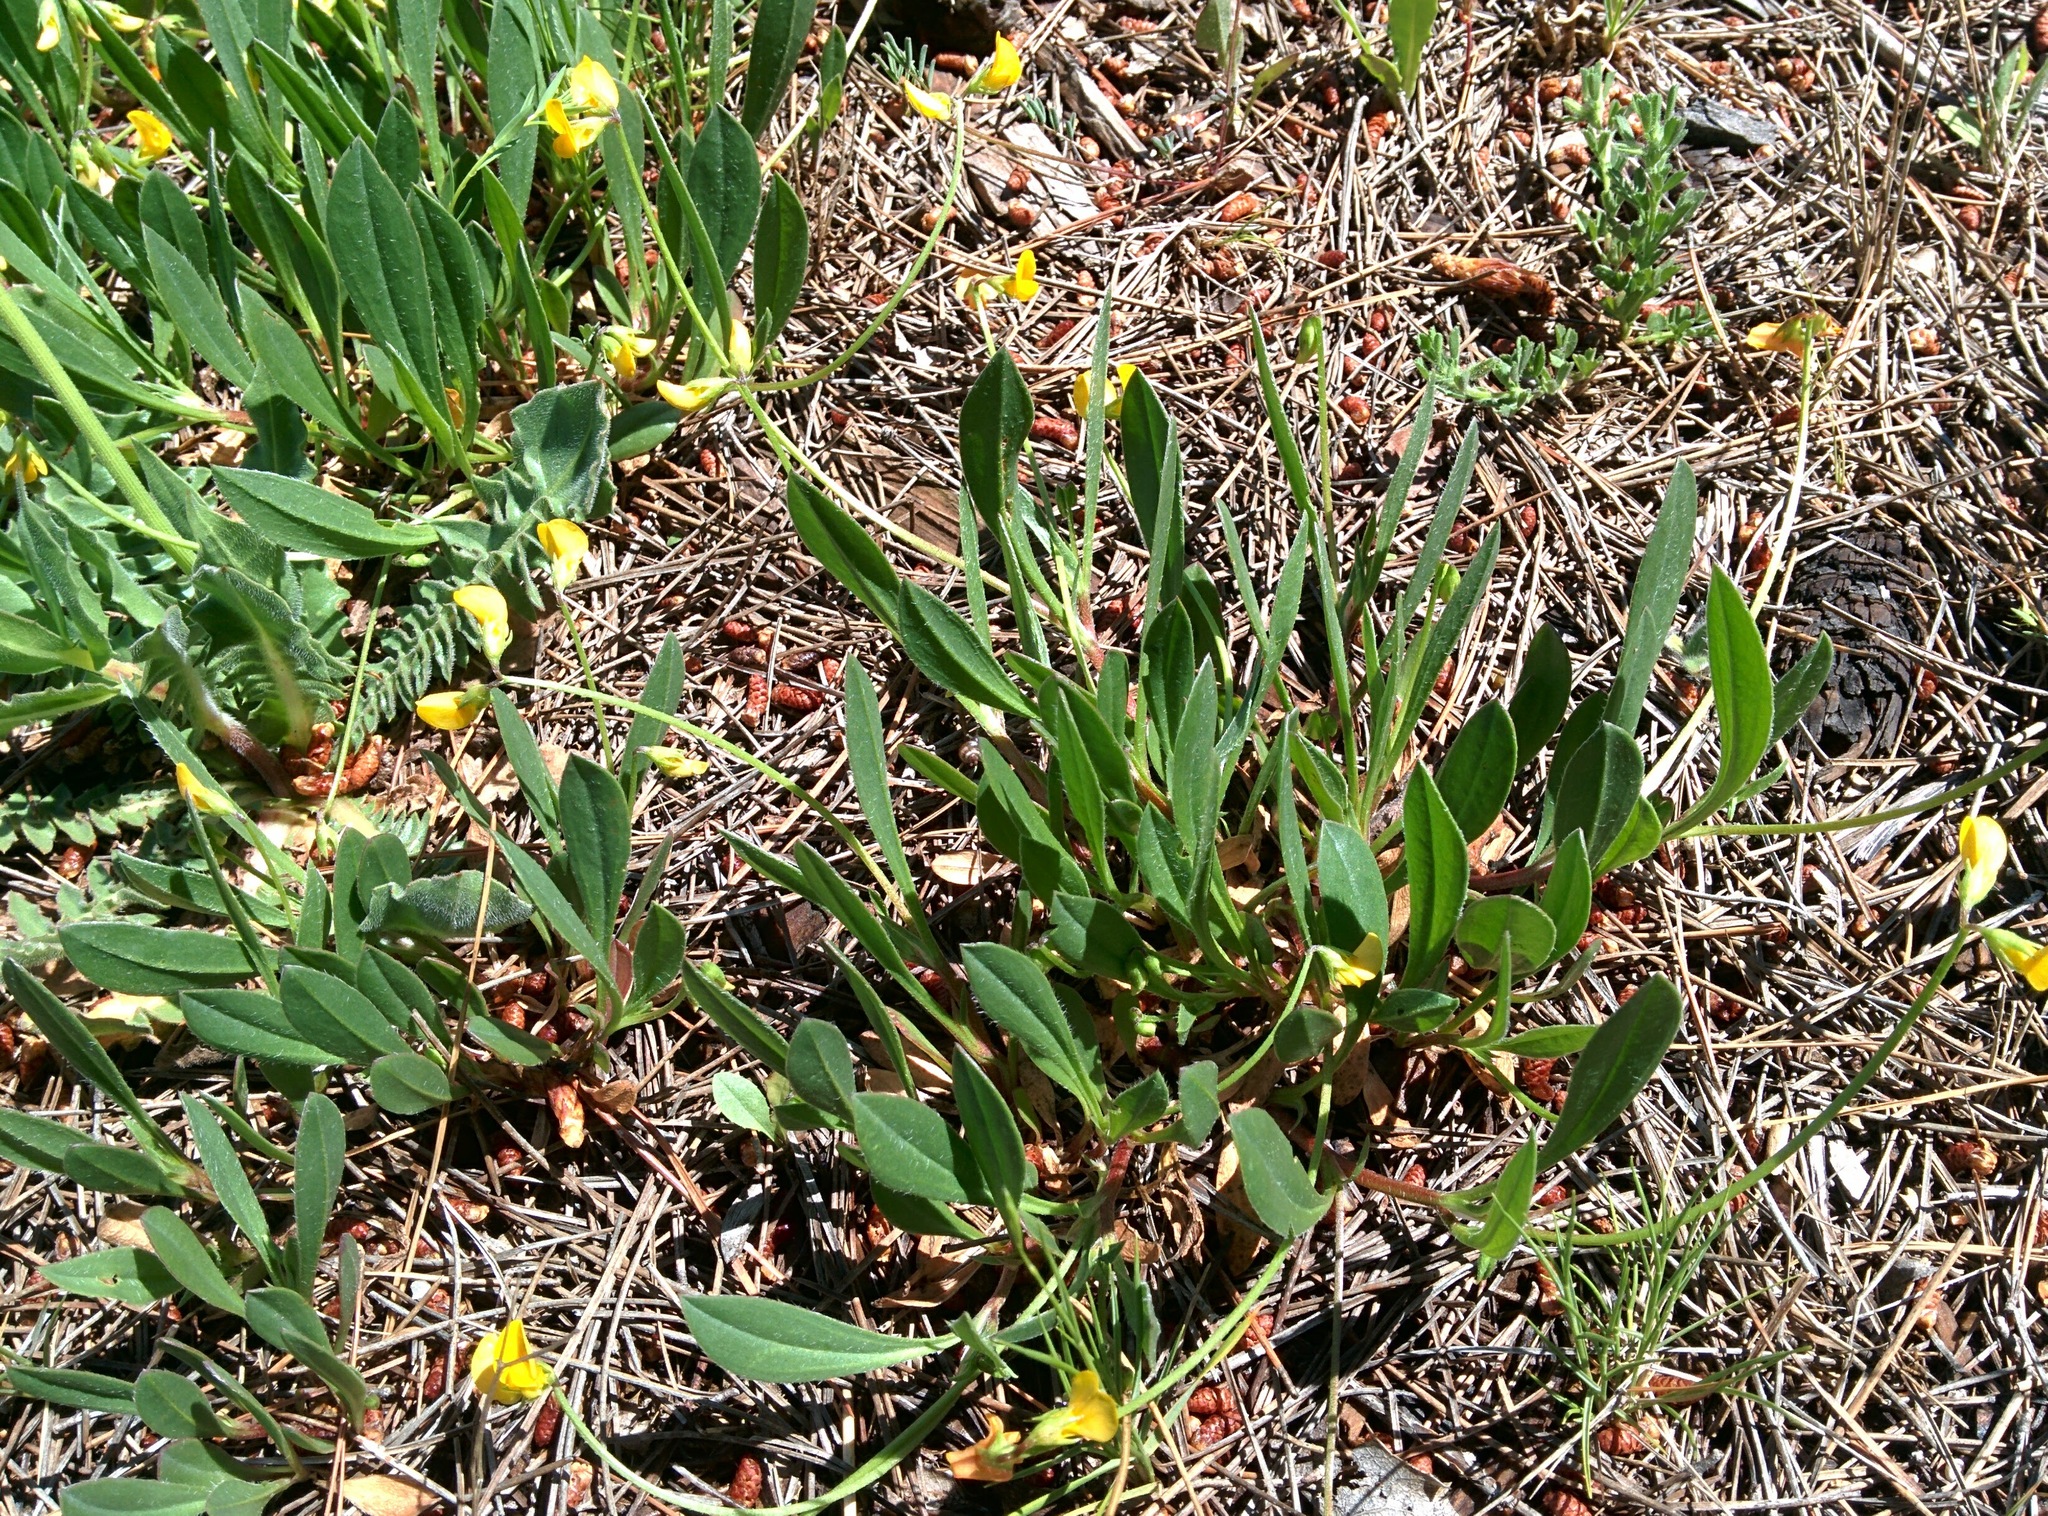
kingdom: Plantae
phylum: Tracheophyta
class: Magnoliopsida
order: Fabales
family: Fabaceae
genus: Scorpiurus
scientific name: Scorpiurus muricatus
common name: Caterpillar-plant
